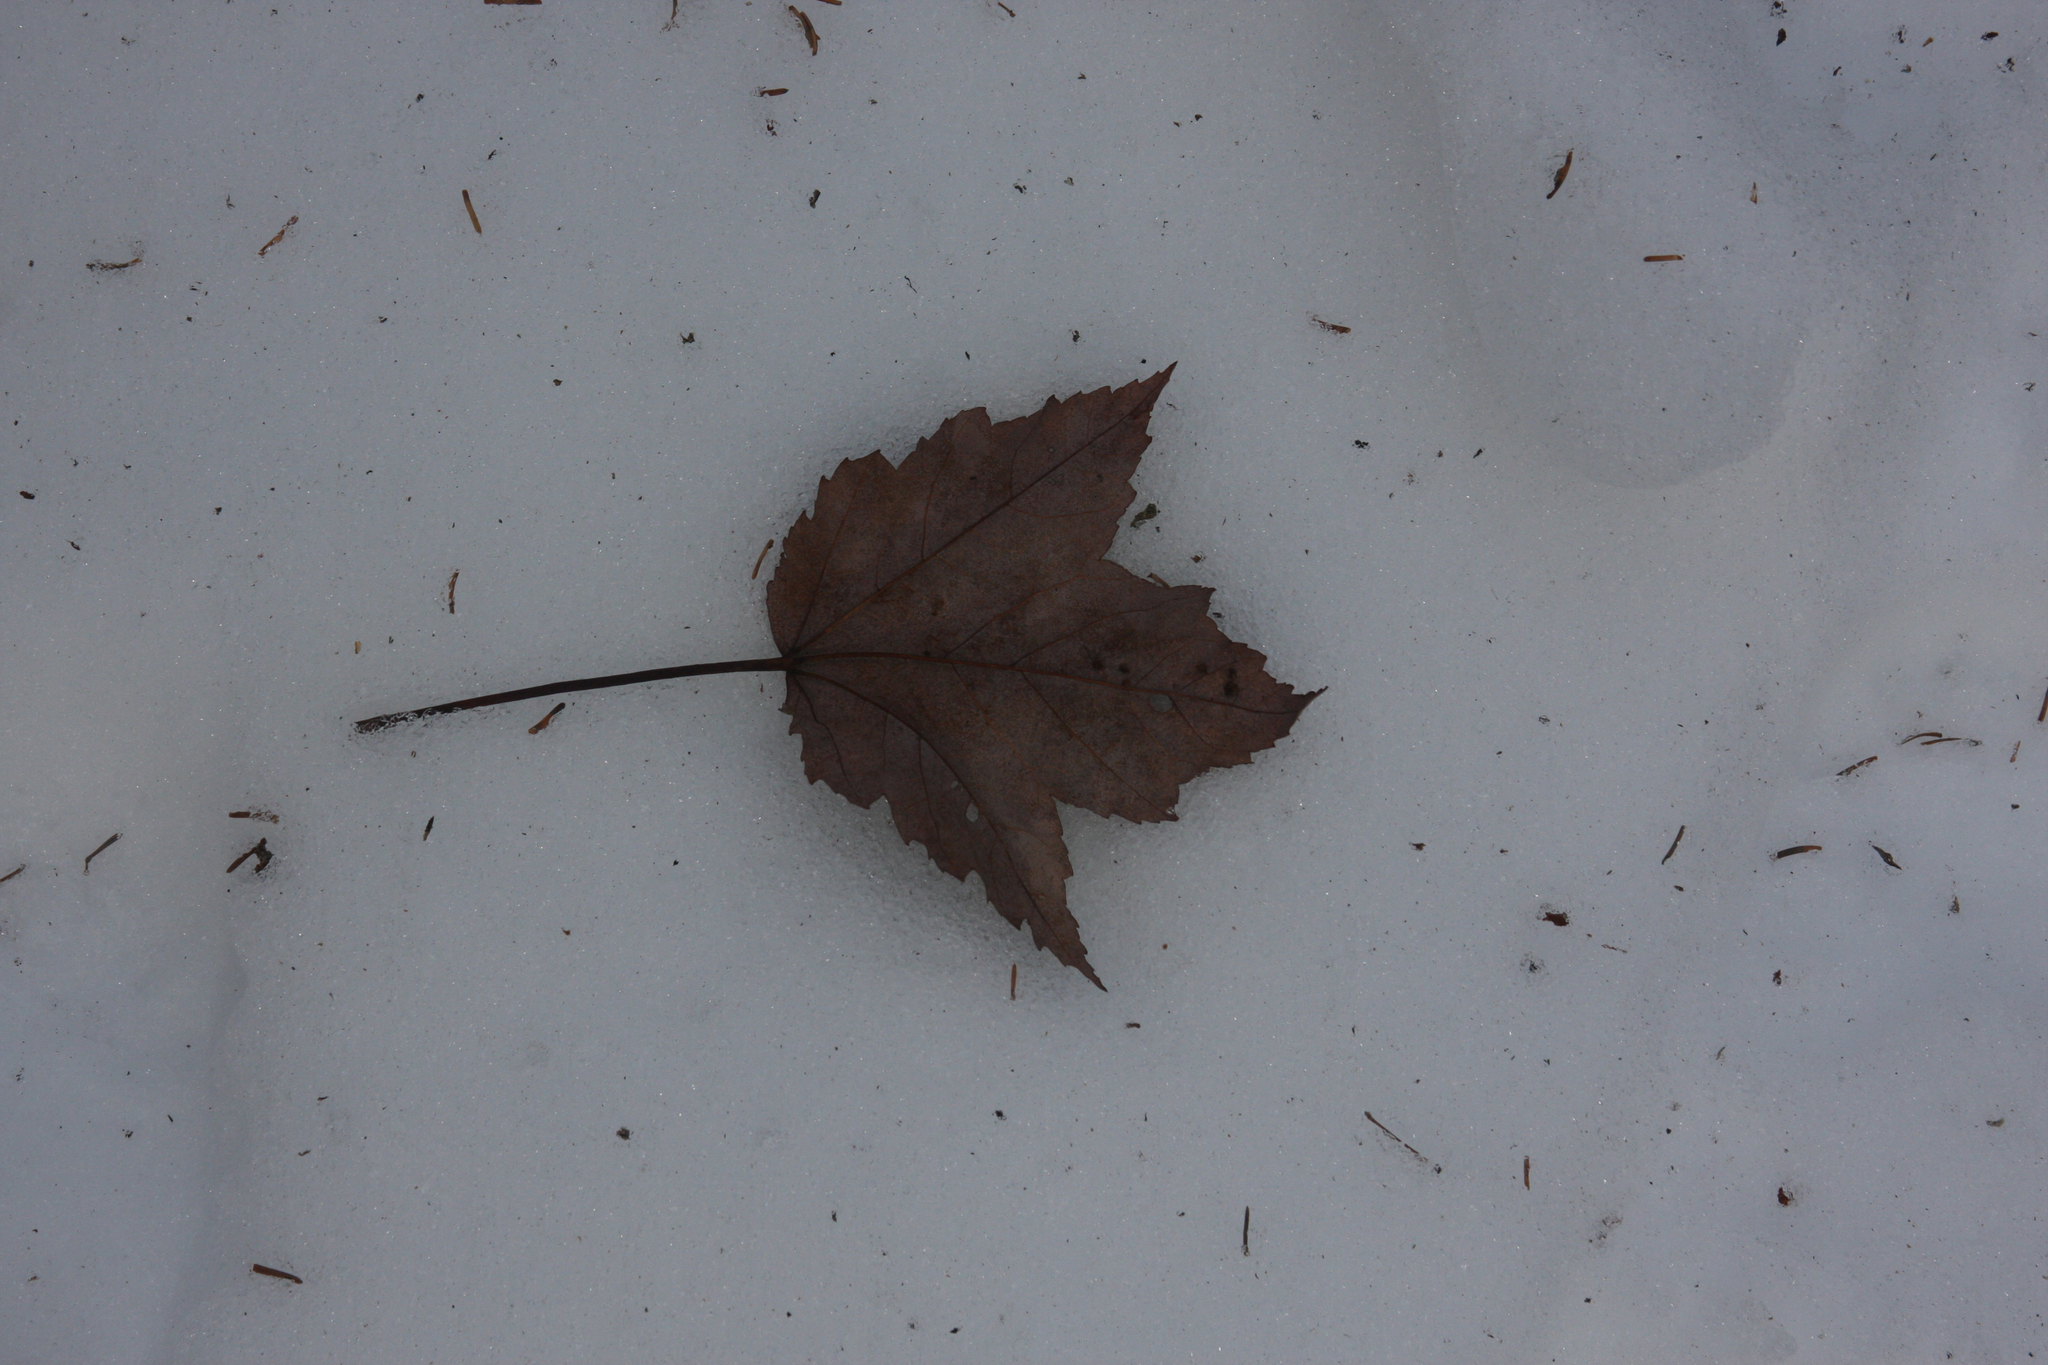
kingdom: Plantae
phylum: Tracheophyta
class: Magnoliopsida
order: Sapindales
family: Sapindaceae
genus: Acer
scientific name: Acer rubrum
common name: Red maple
